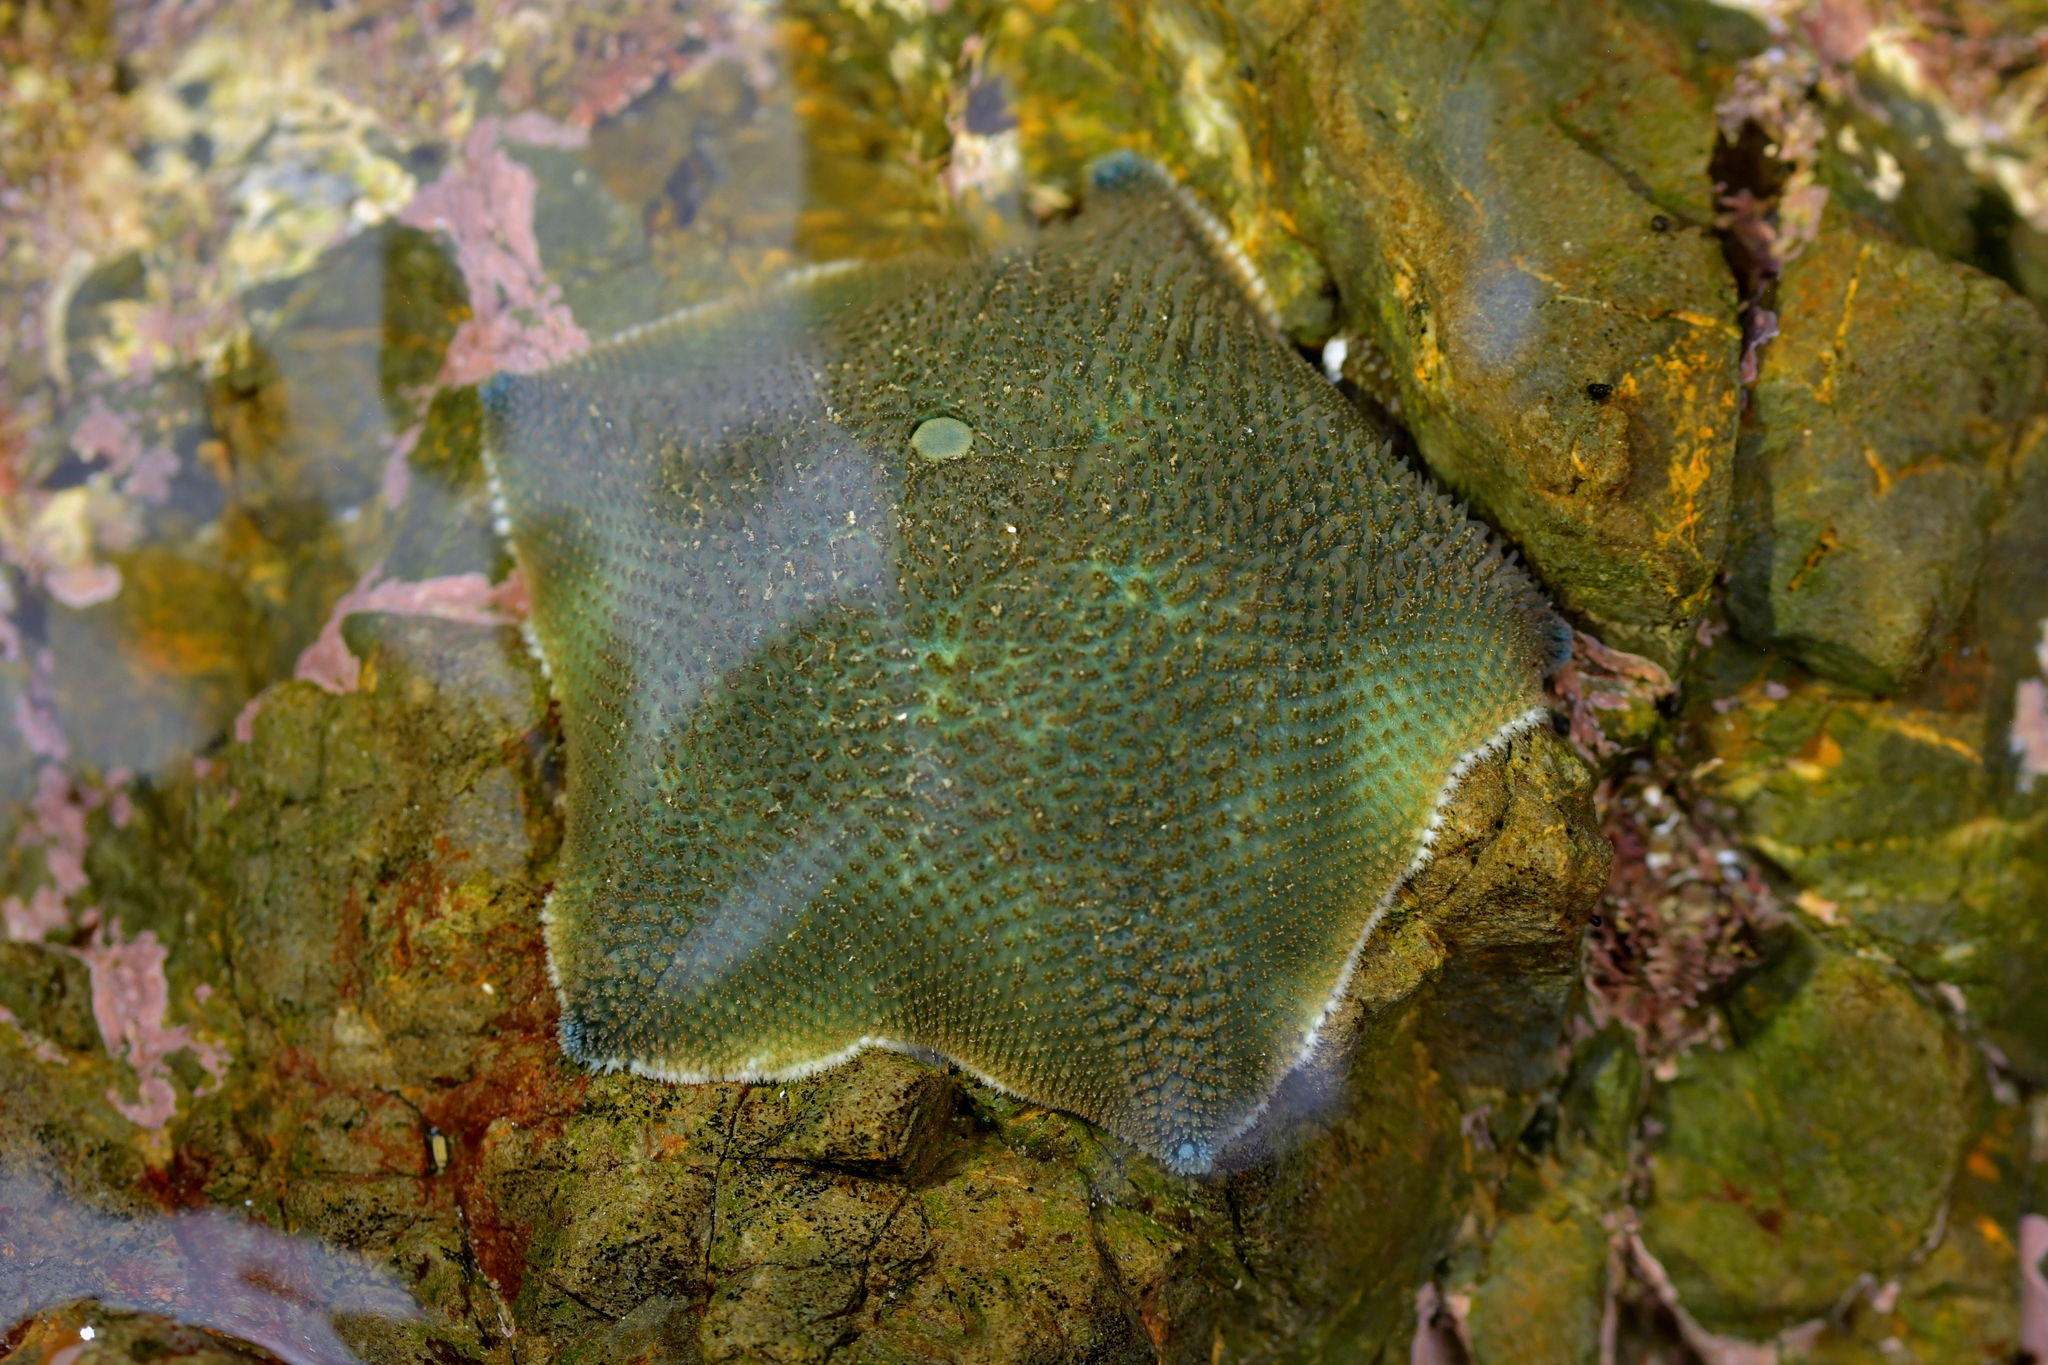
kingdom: Animalia
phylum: Echinodermata
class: Asteroidea
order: Valvatida
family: Asterinidae
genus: Patiriella
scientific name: Patiriella regularis
